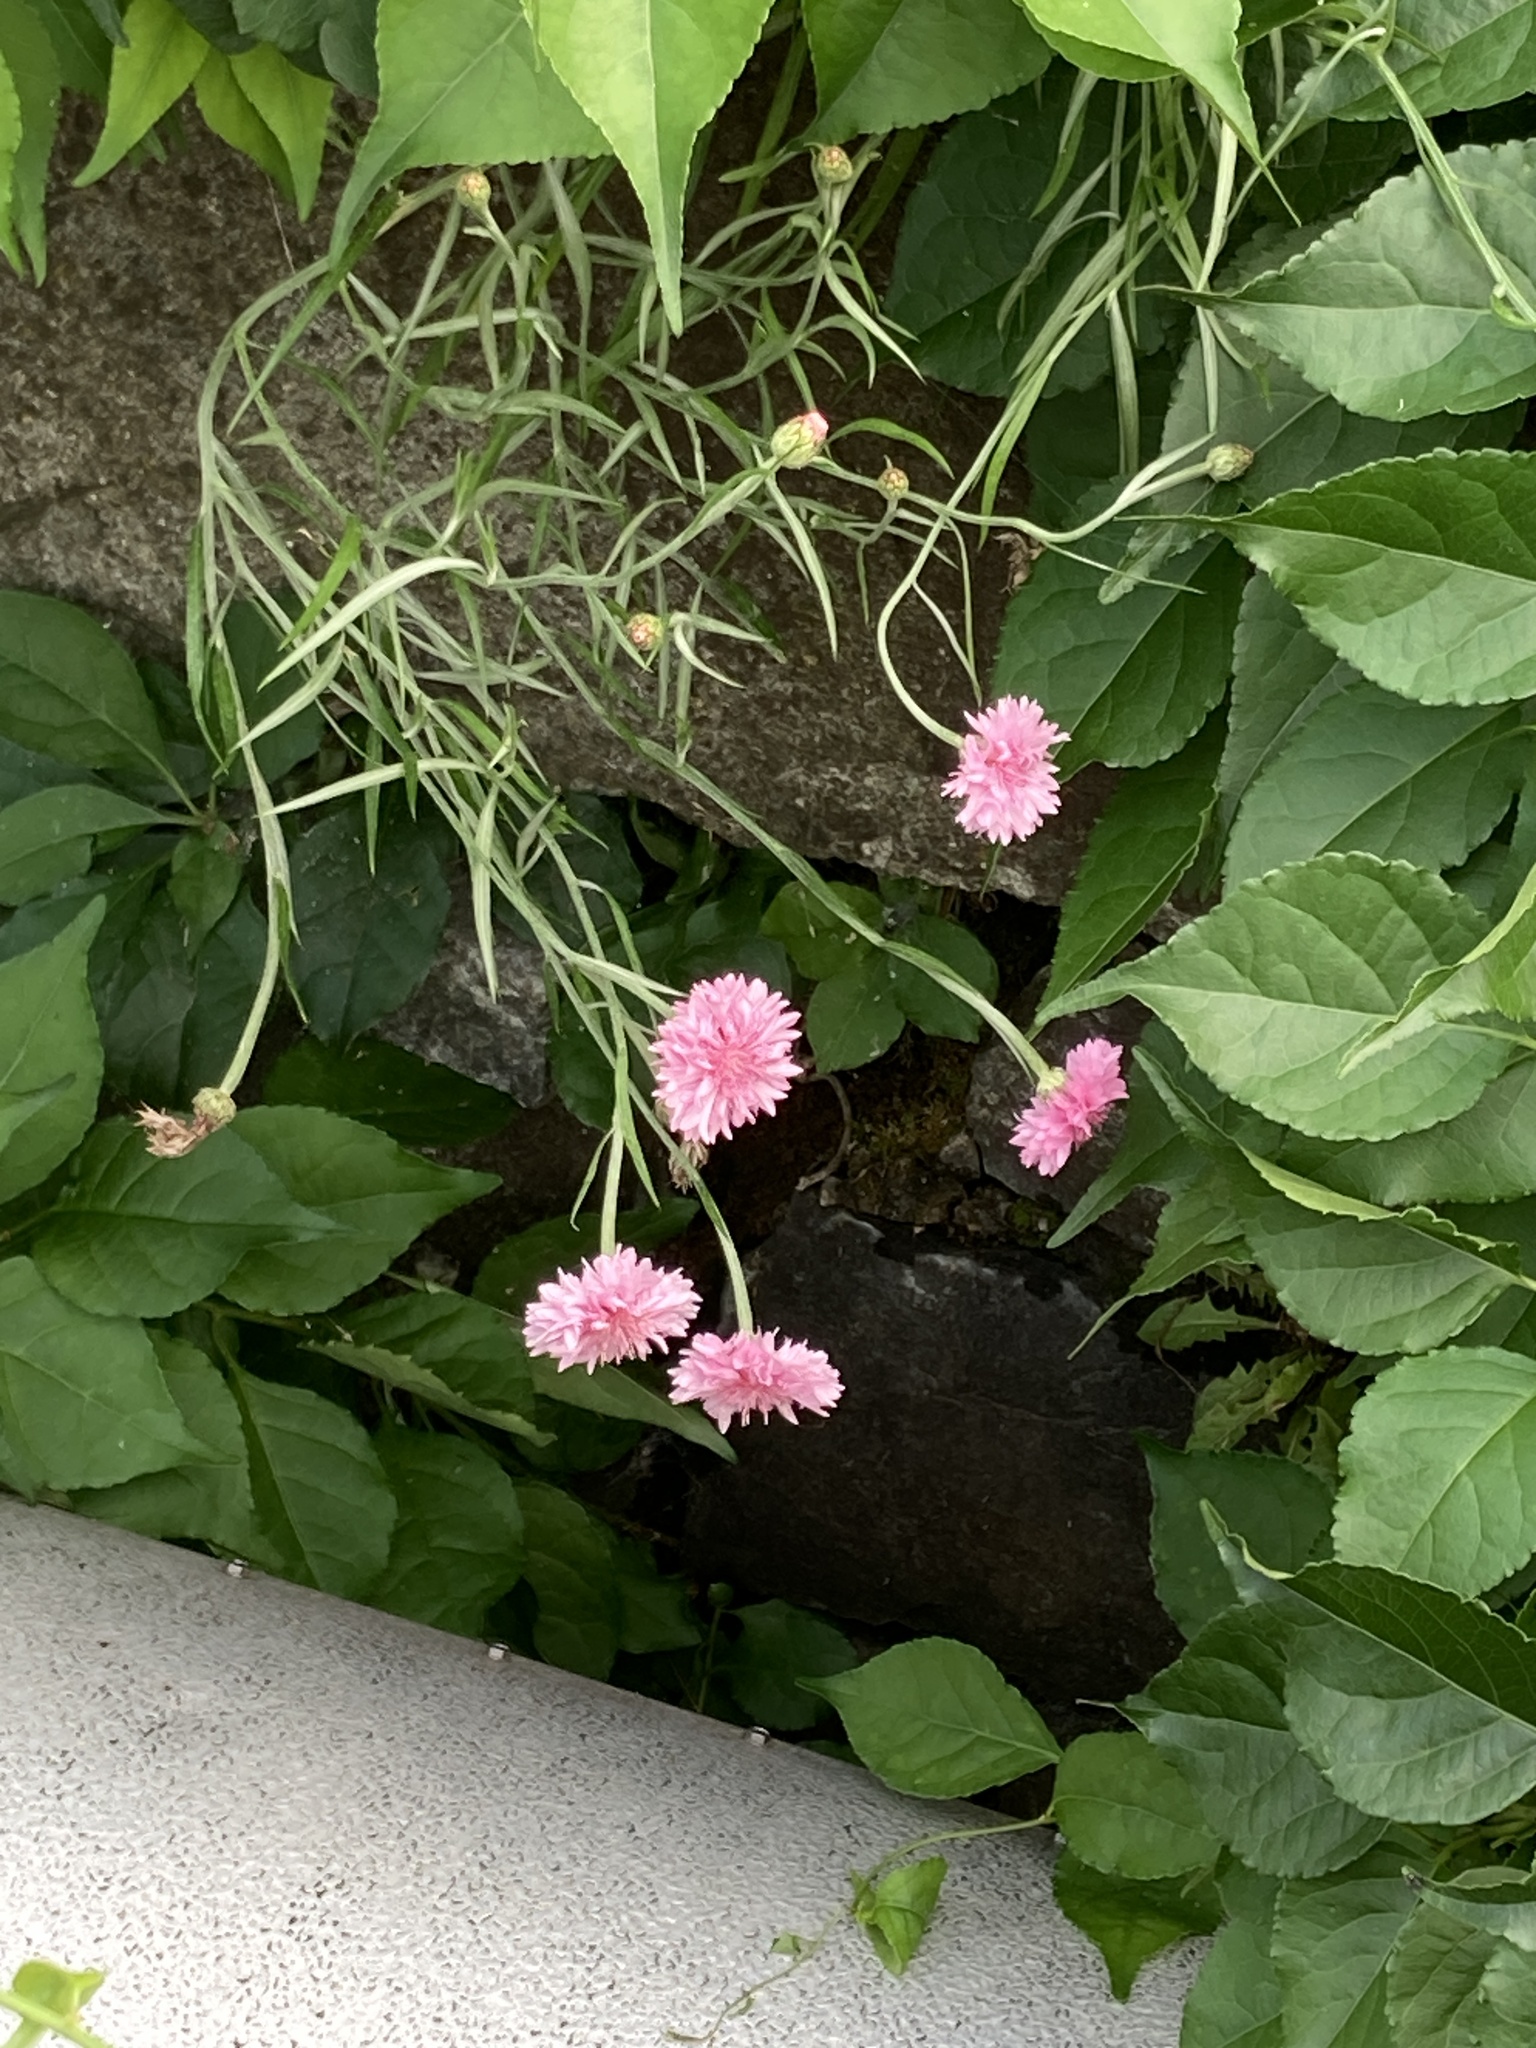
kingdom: Plantae
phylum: Tracheophyta
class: Magnoliopsida
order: Asterales
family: Asteraceae
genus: Centaurea
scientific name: Centaurea cyanus
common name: Cornflower
